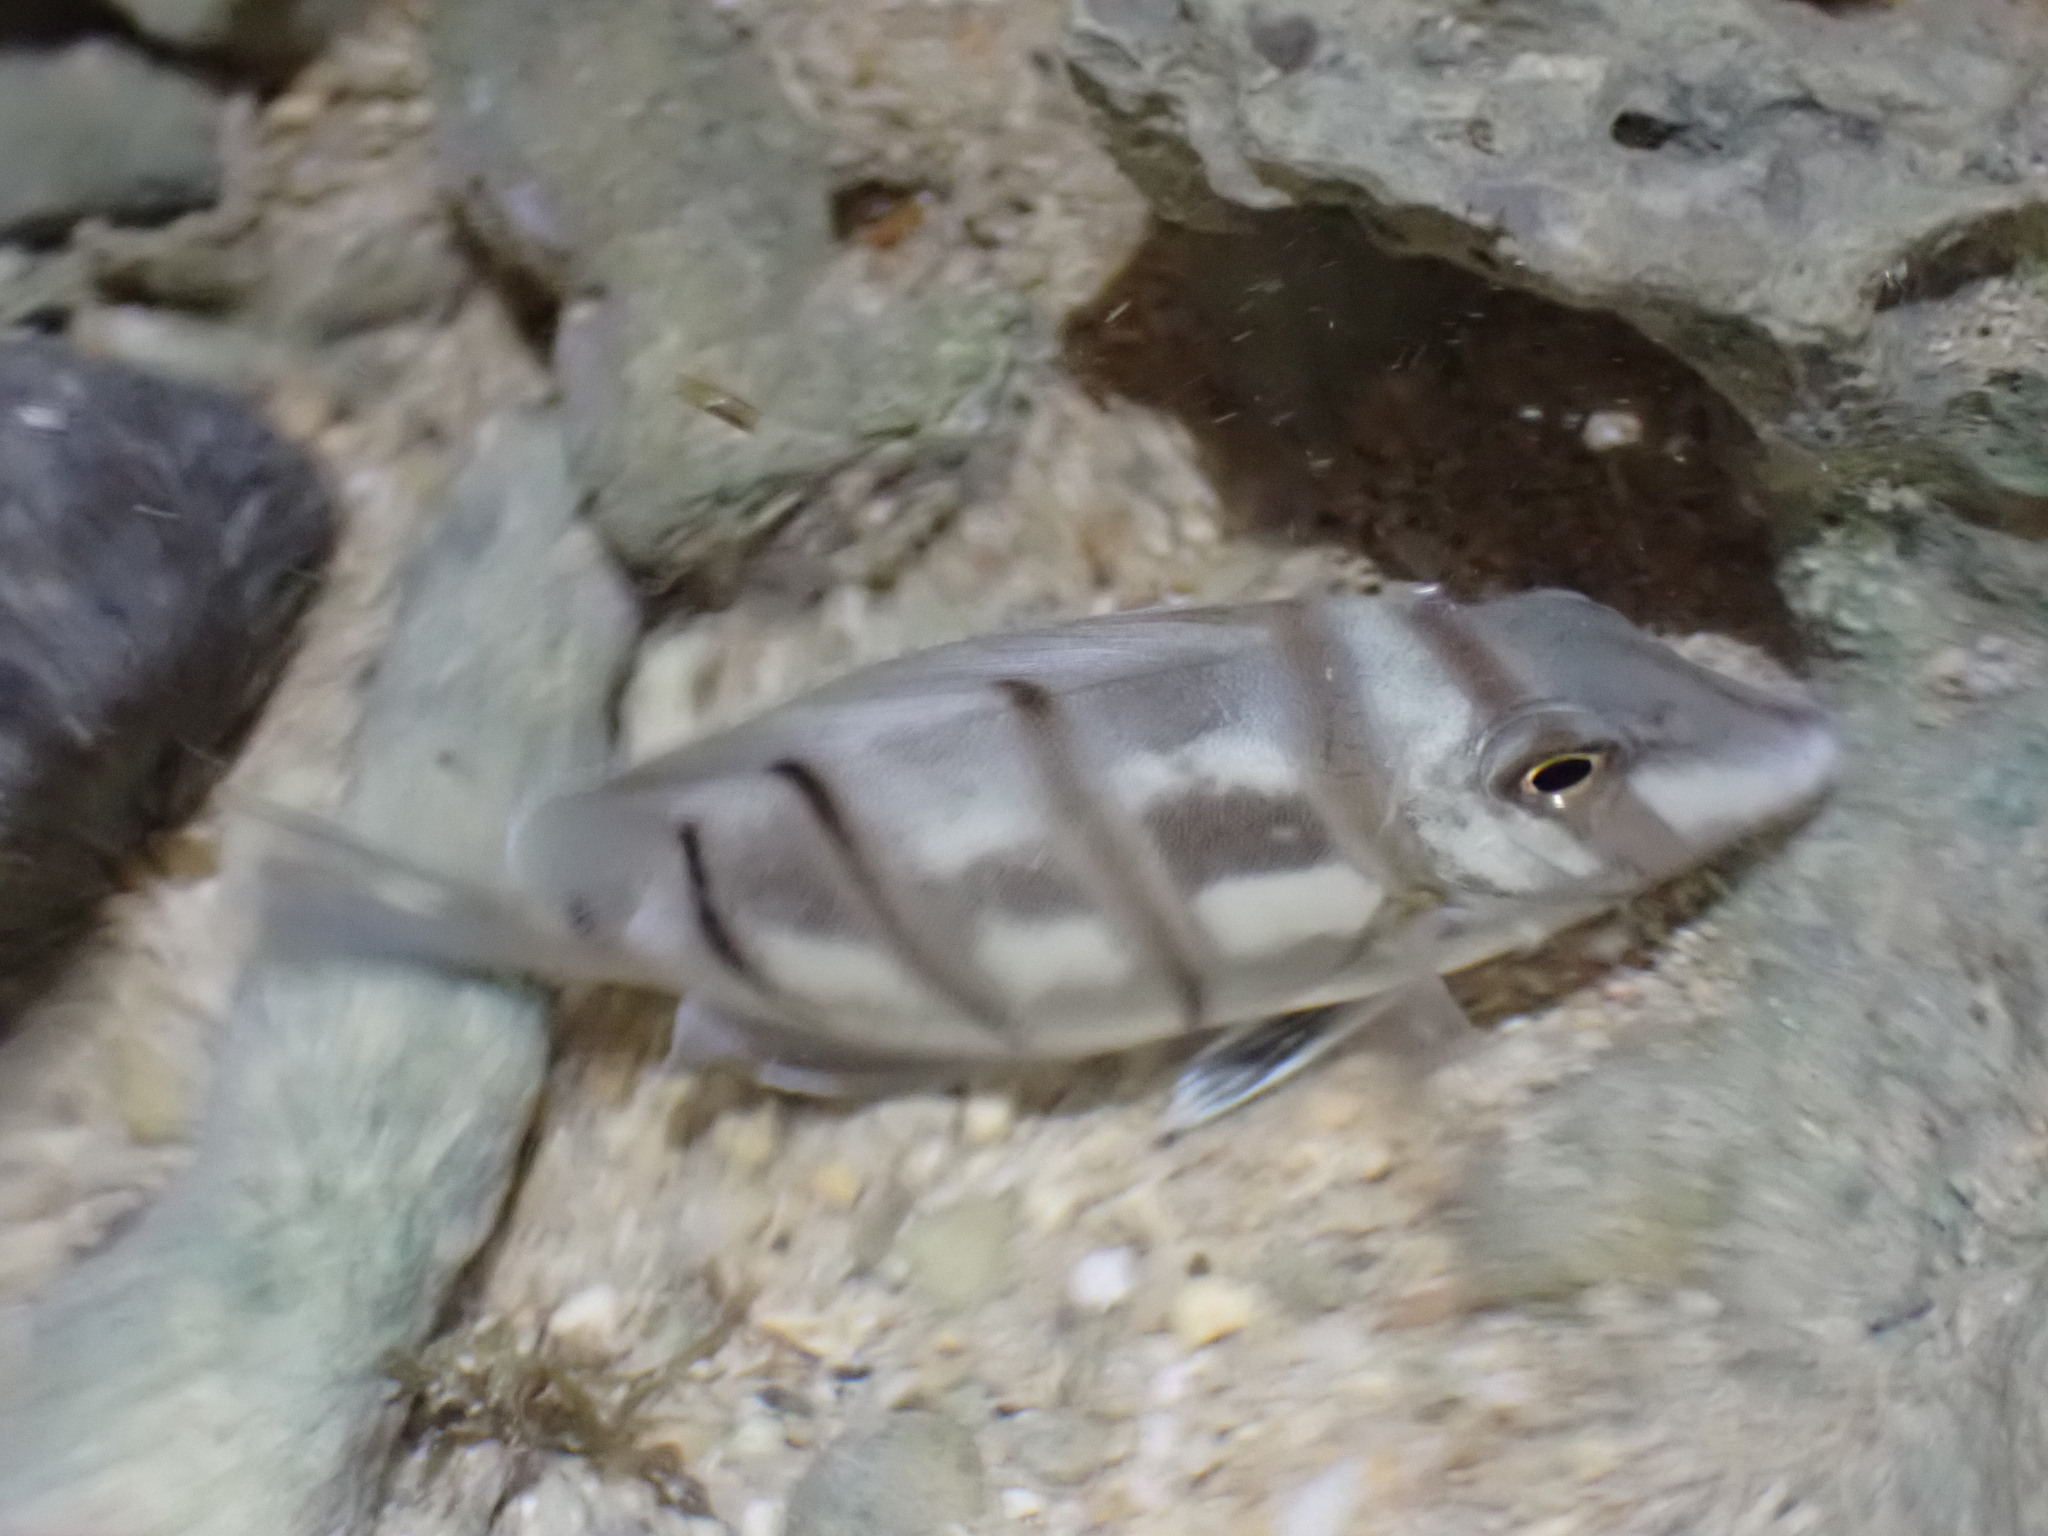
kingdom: Animalia
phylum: Chordata
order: Perciformes
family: Acanthuridae
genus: Acanthurus
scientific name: Acanthurus triostegus
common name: Convict surgeonfish
